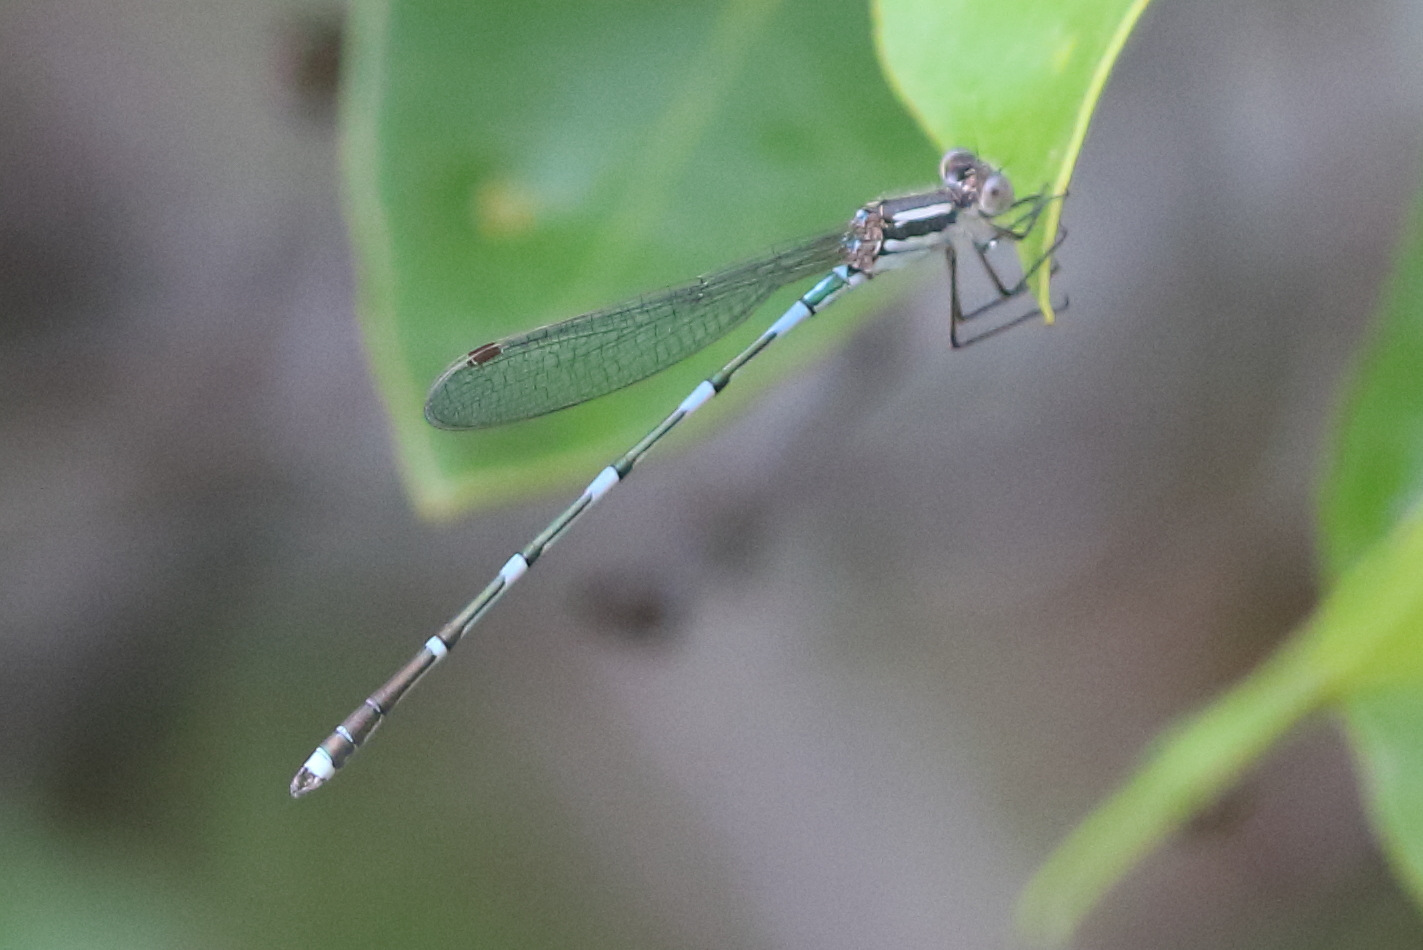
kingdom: Animalia
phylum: Arthropoda
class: Insecta
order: Odonata
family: Lestidae
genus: Austrolestes
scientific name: Austrolestes leda
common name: Wandering ringtail
